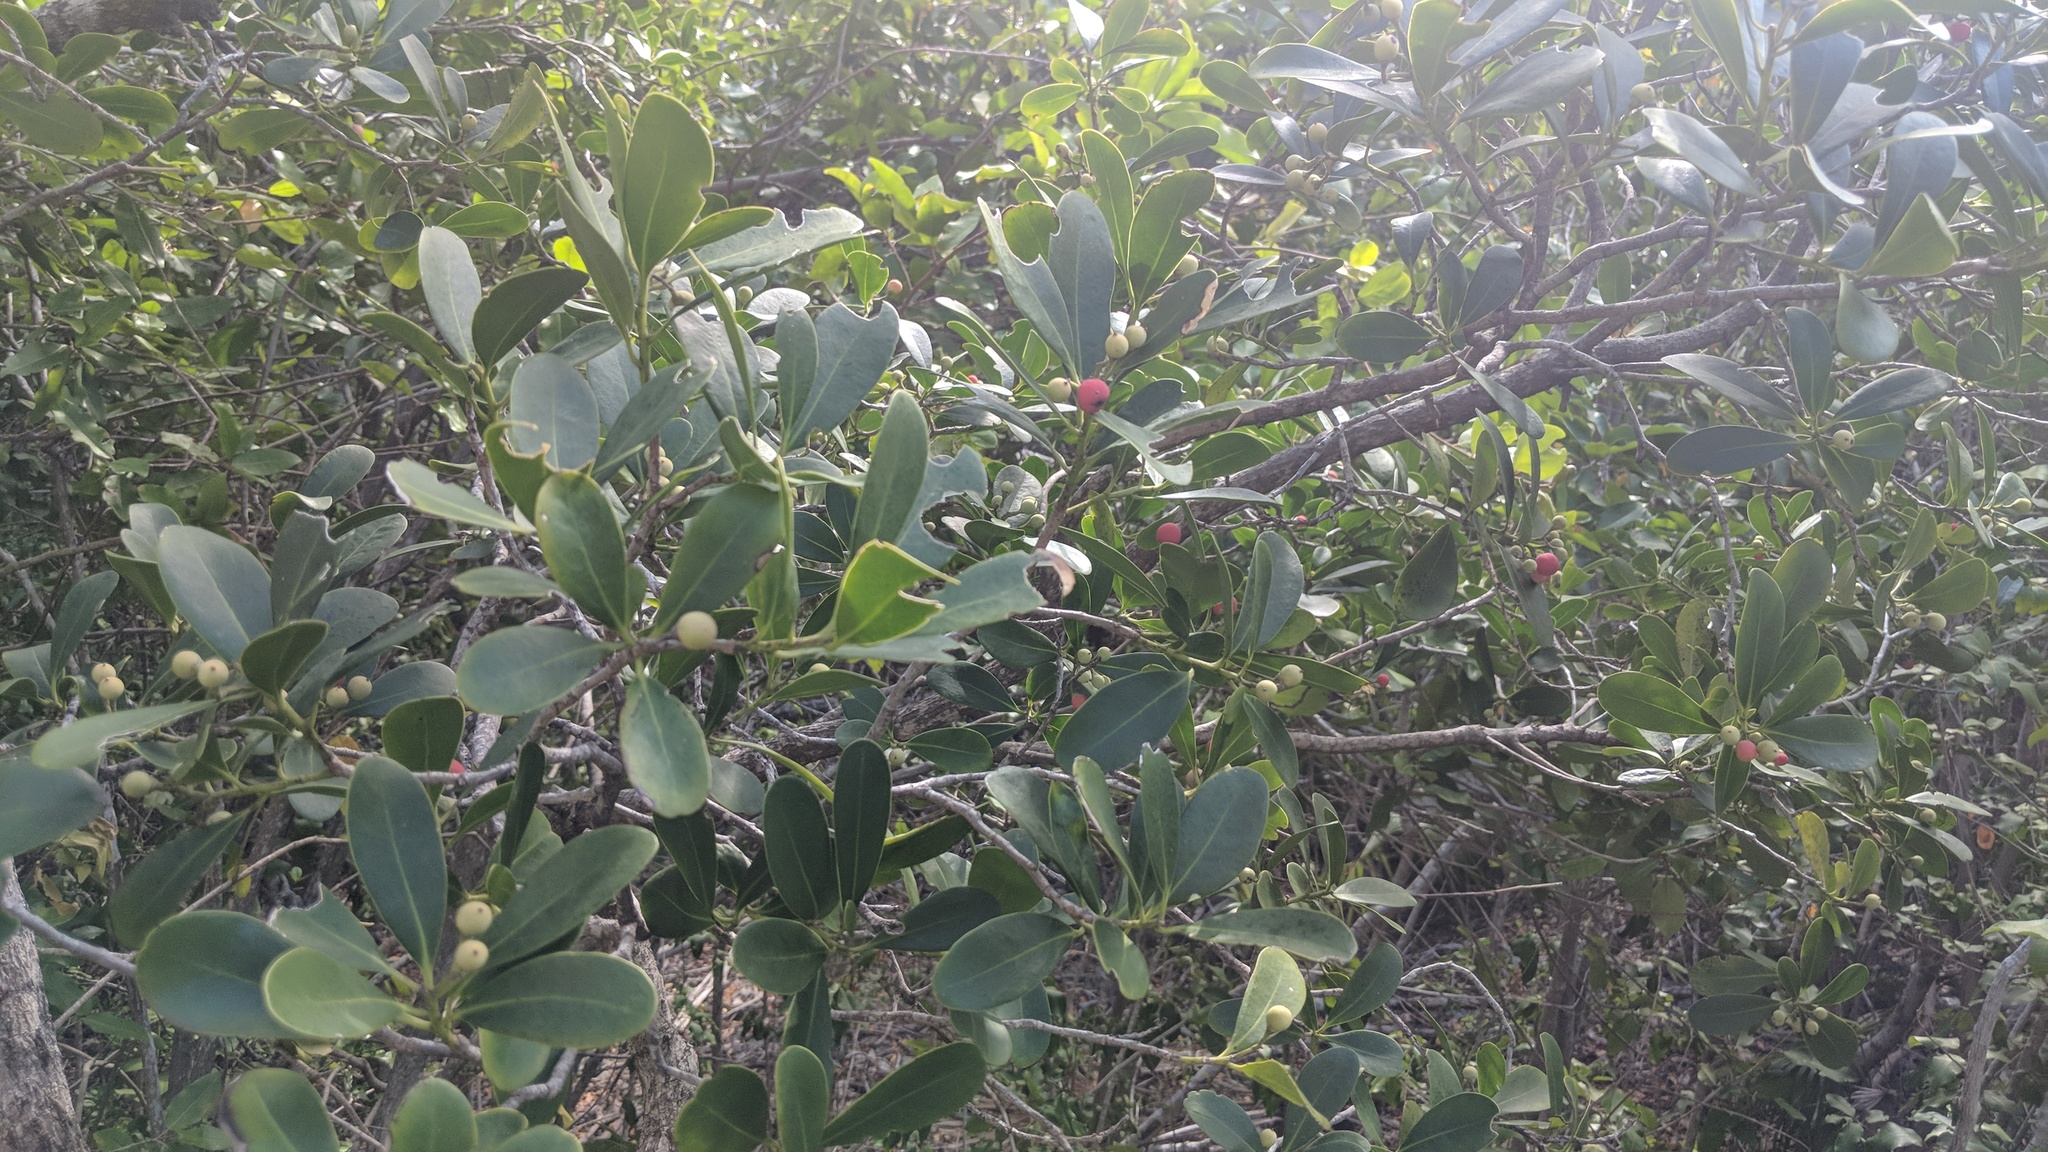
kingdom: Plantae
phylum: Tracheophyta
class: Magnoliopsida
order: Canellales
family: Canellaceae
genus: Canella
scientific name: Canella winterana
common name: Canella
